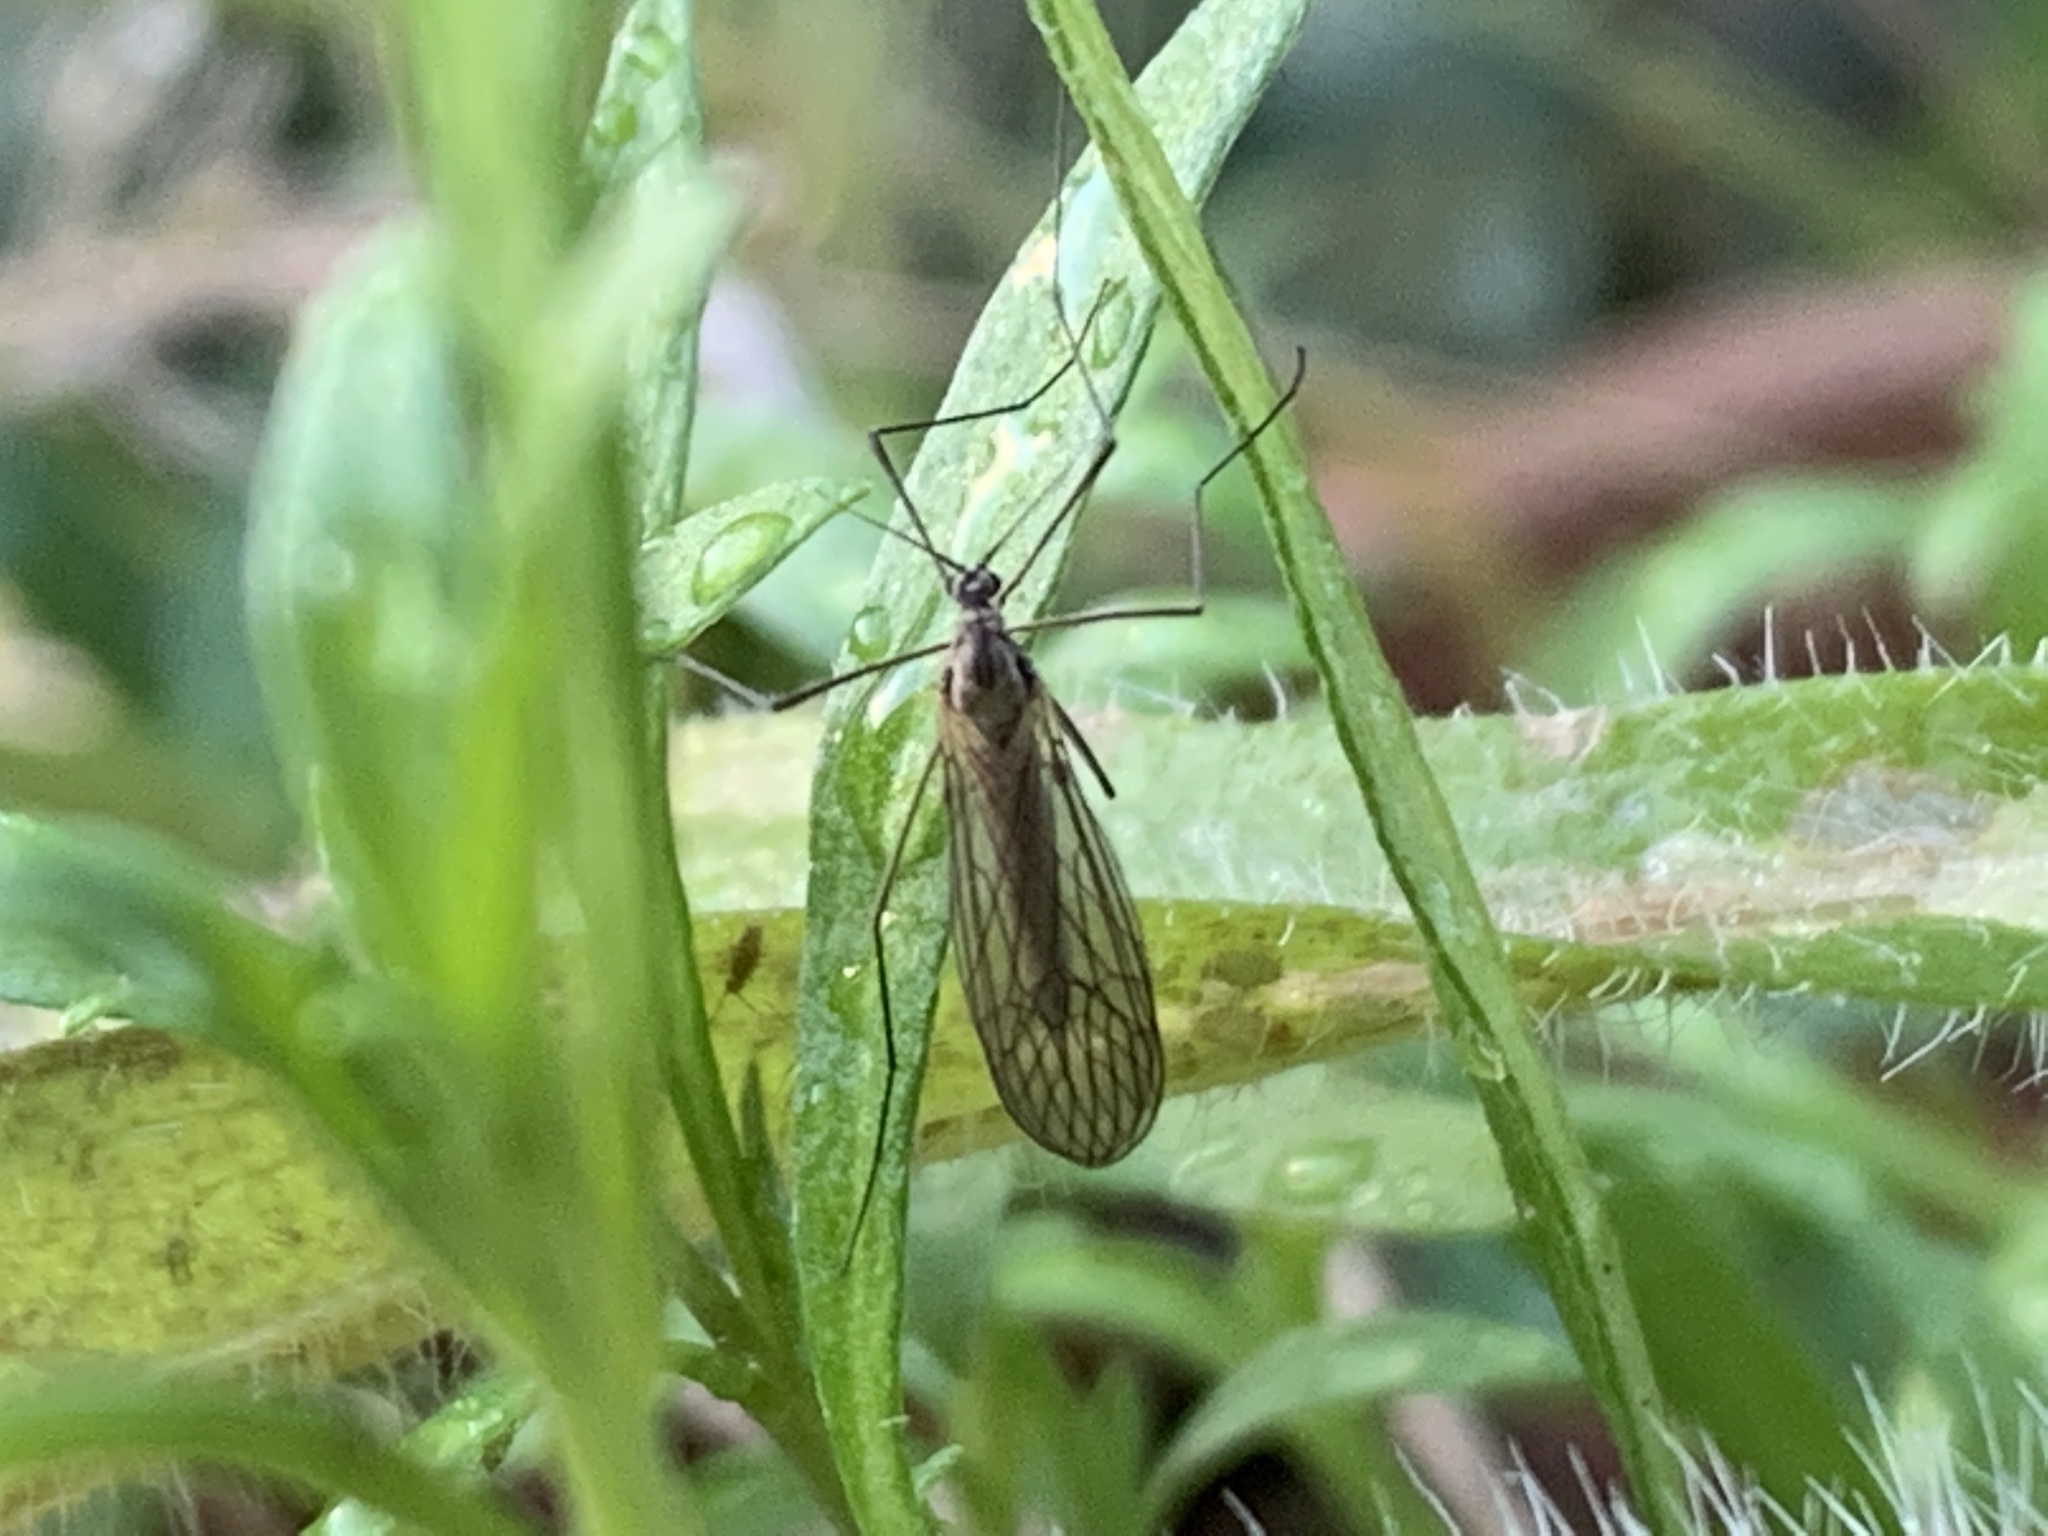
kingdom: Animalia
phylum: Arthropoda
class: Insecta
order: Diptera
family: Trichoceridae
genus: Trichocera
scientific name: Trichocera
